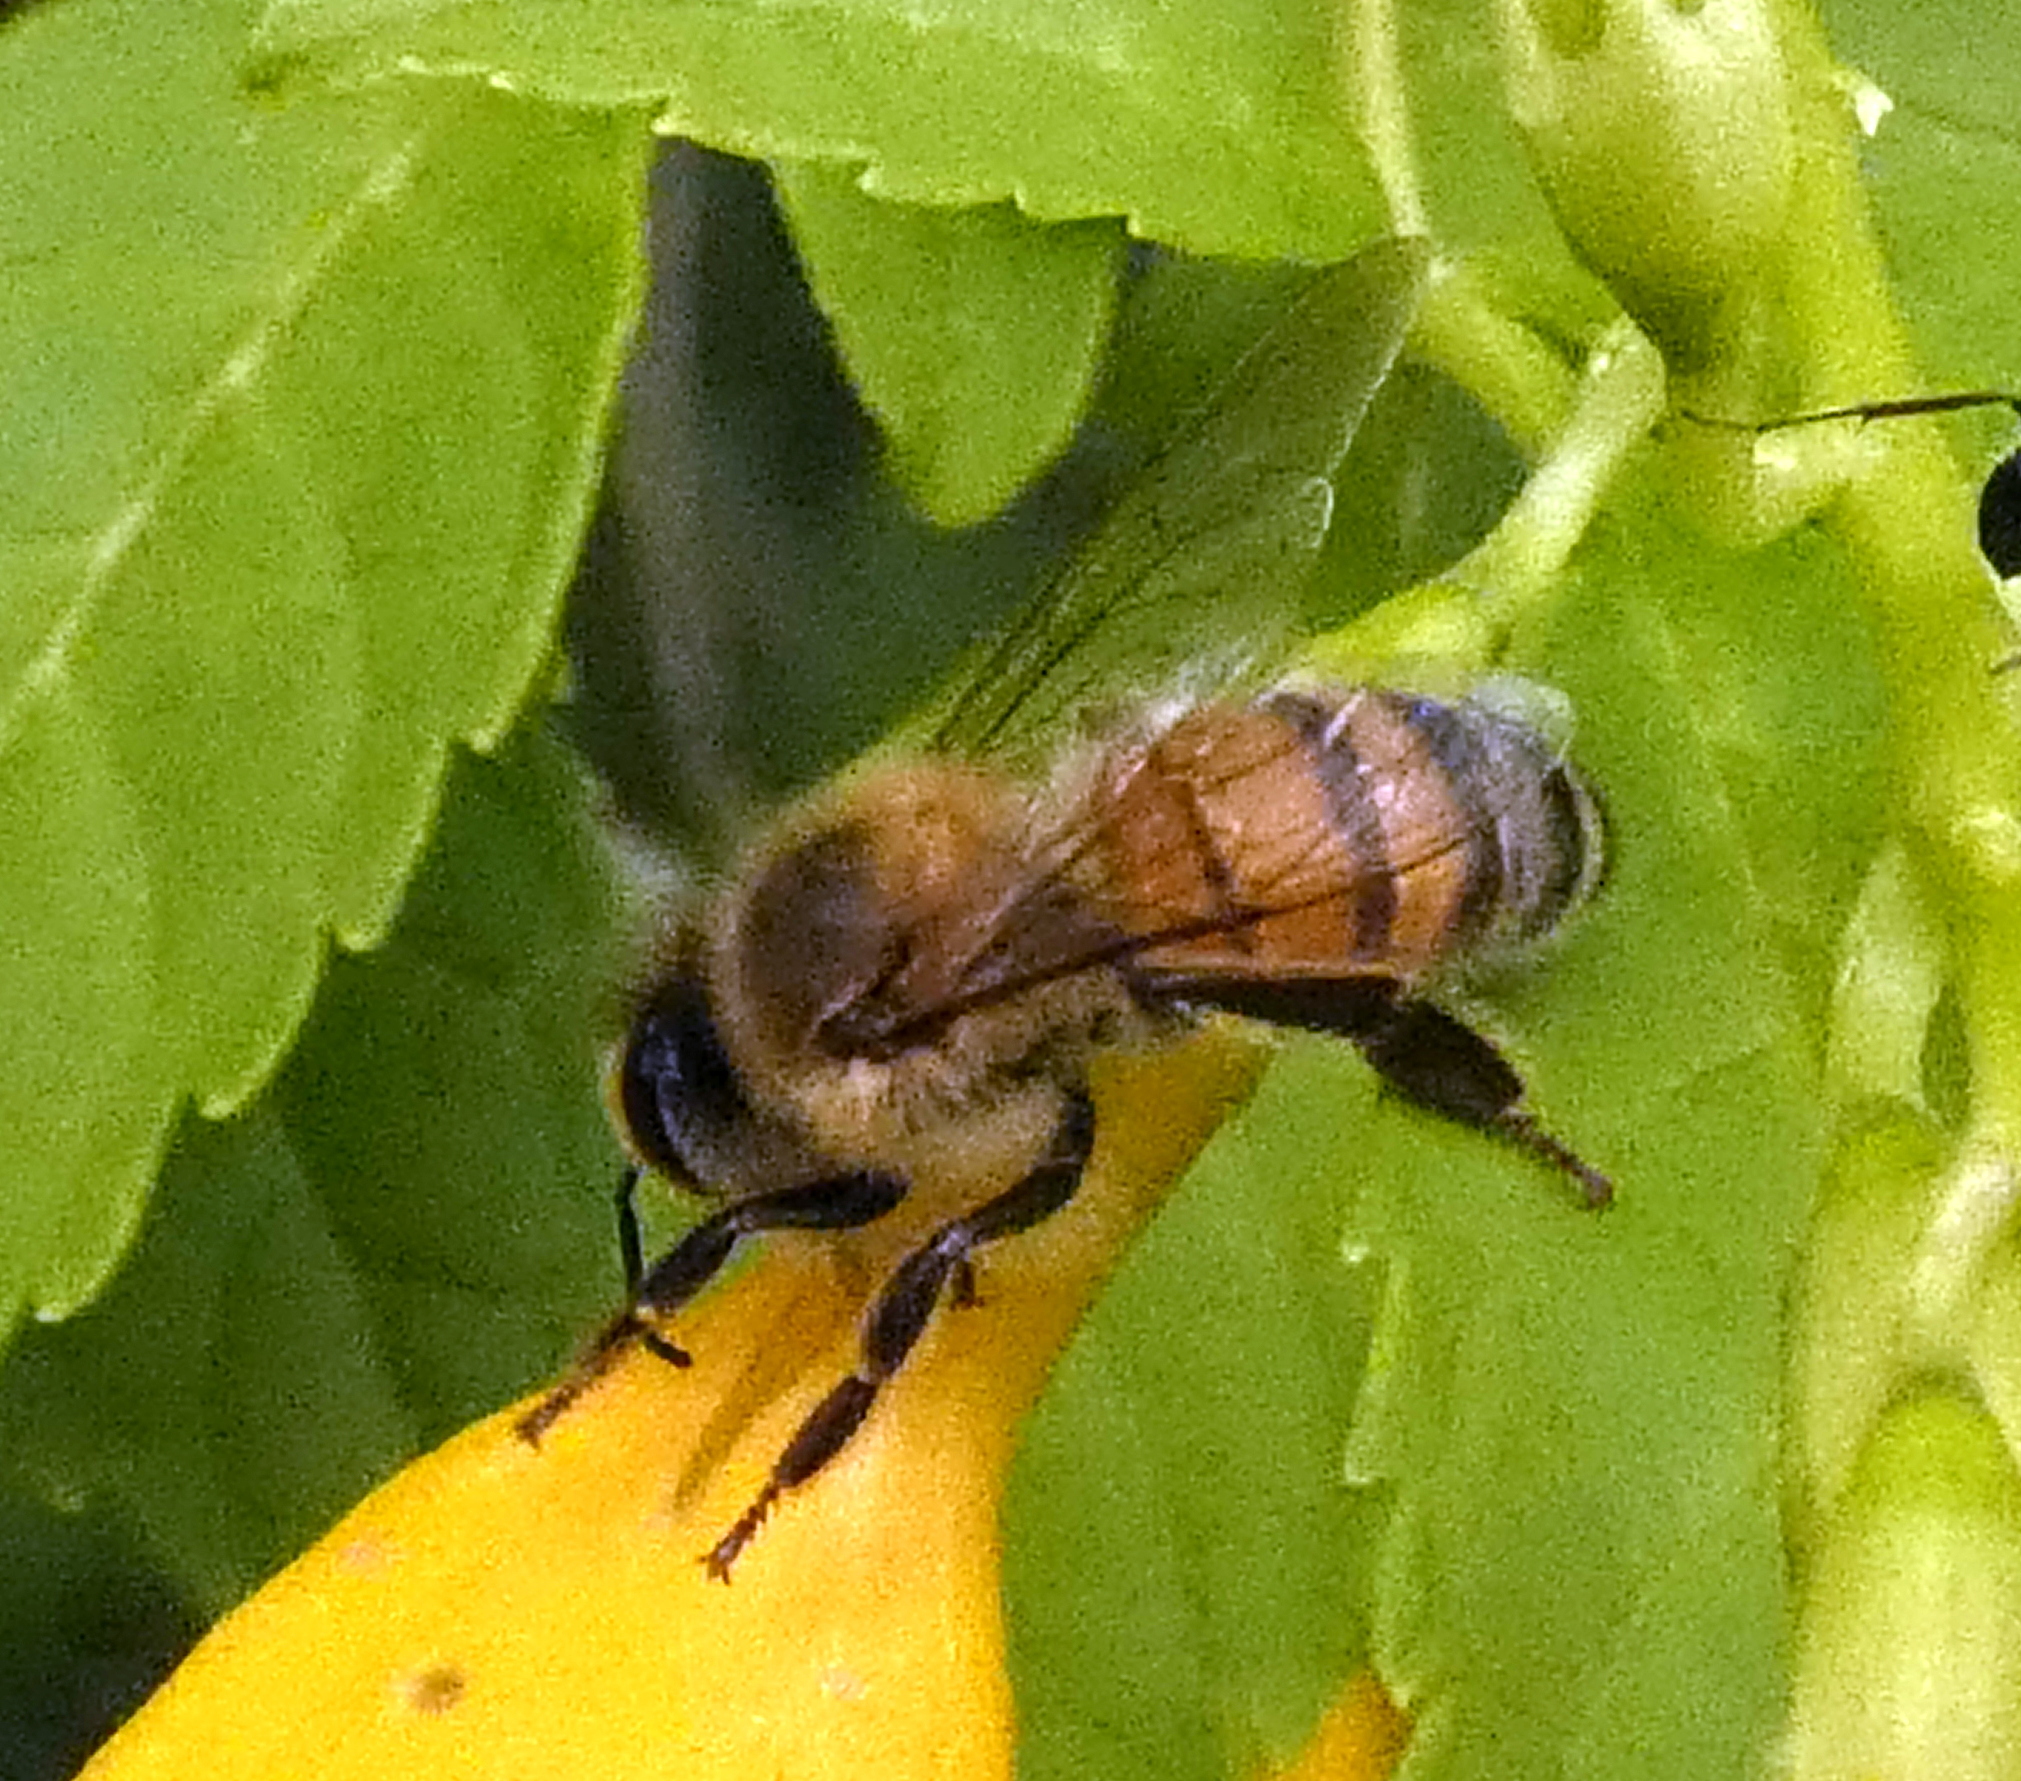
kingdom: Animalia
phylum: Arthropoda
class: Insecta
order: Hymenoptera
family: Apidae
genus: Apis
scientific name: Apis mellifera
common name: Honey bee
